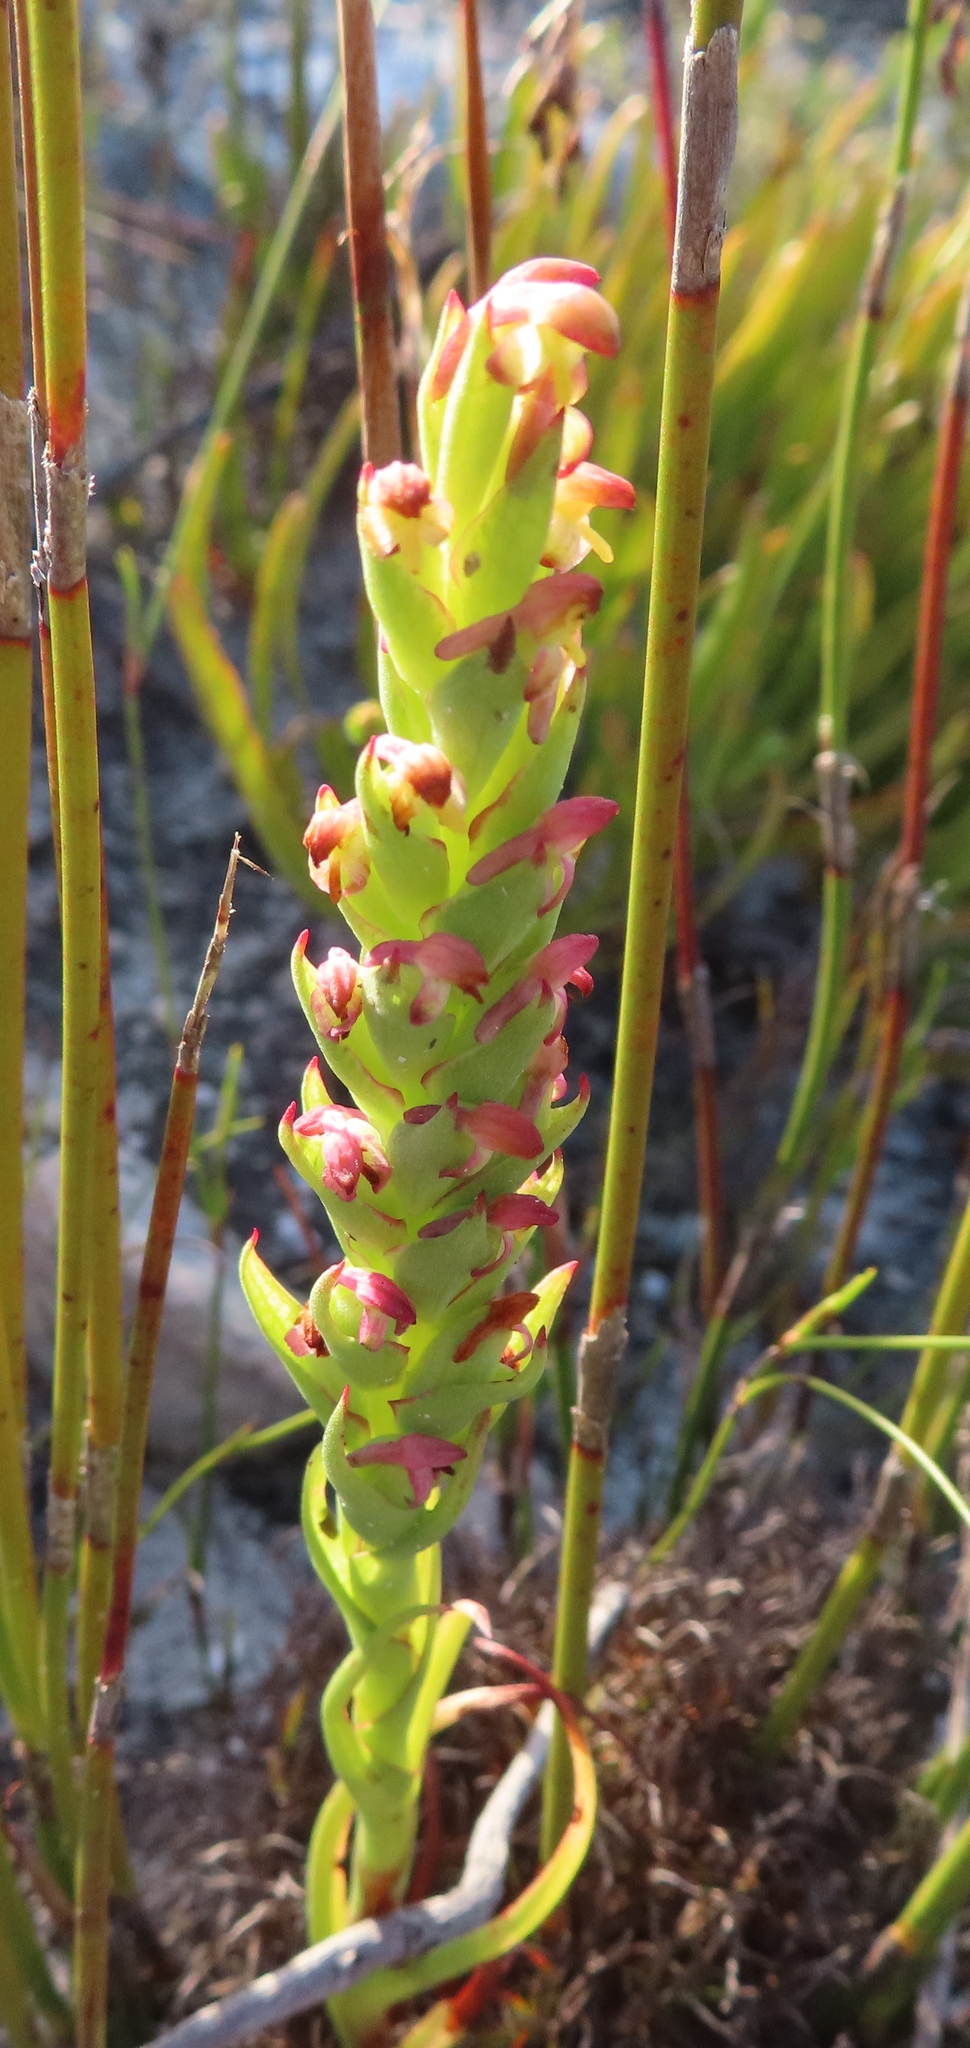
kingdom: Plantae
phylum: Tracheophyta
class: Liliopsida
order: Asparagales
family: Orchidaceae
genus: Disa
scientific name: Disa bracteata
